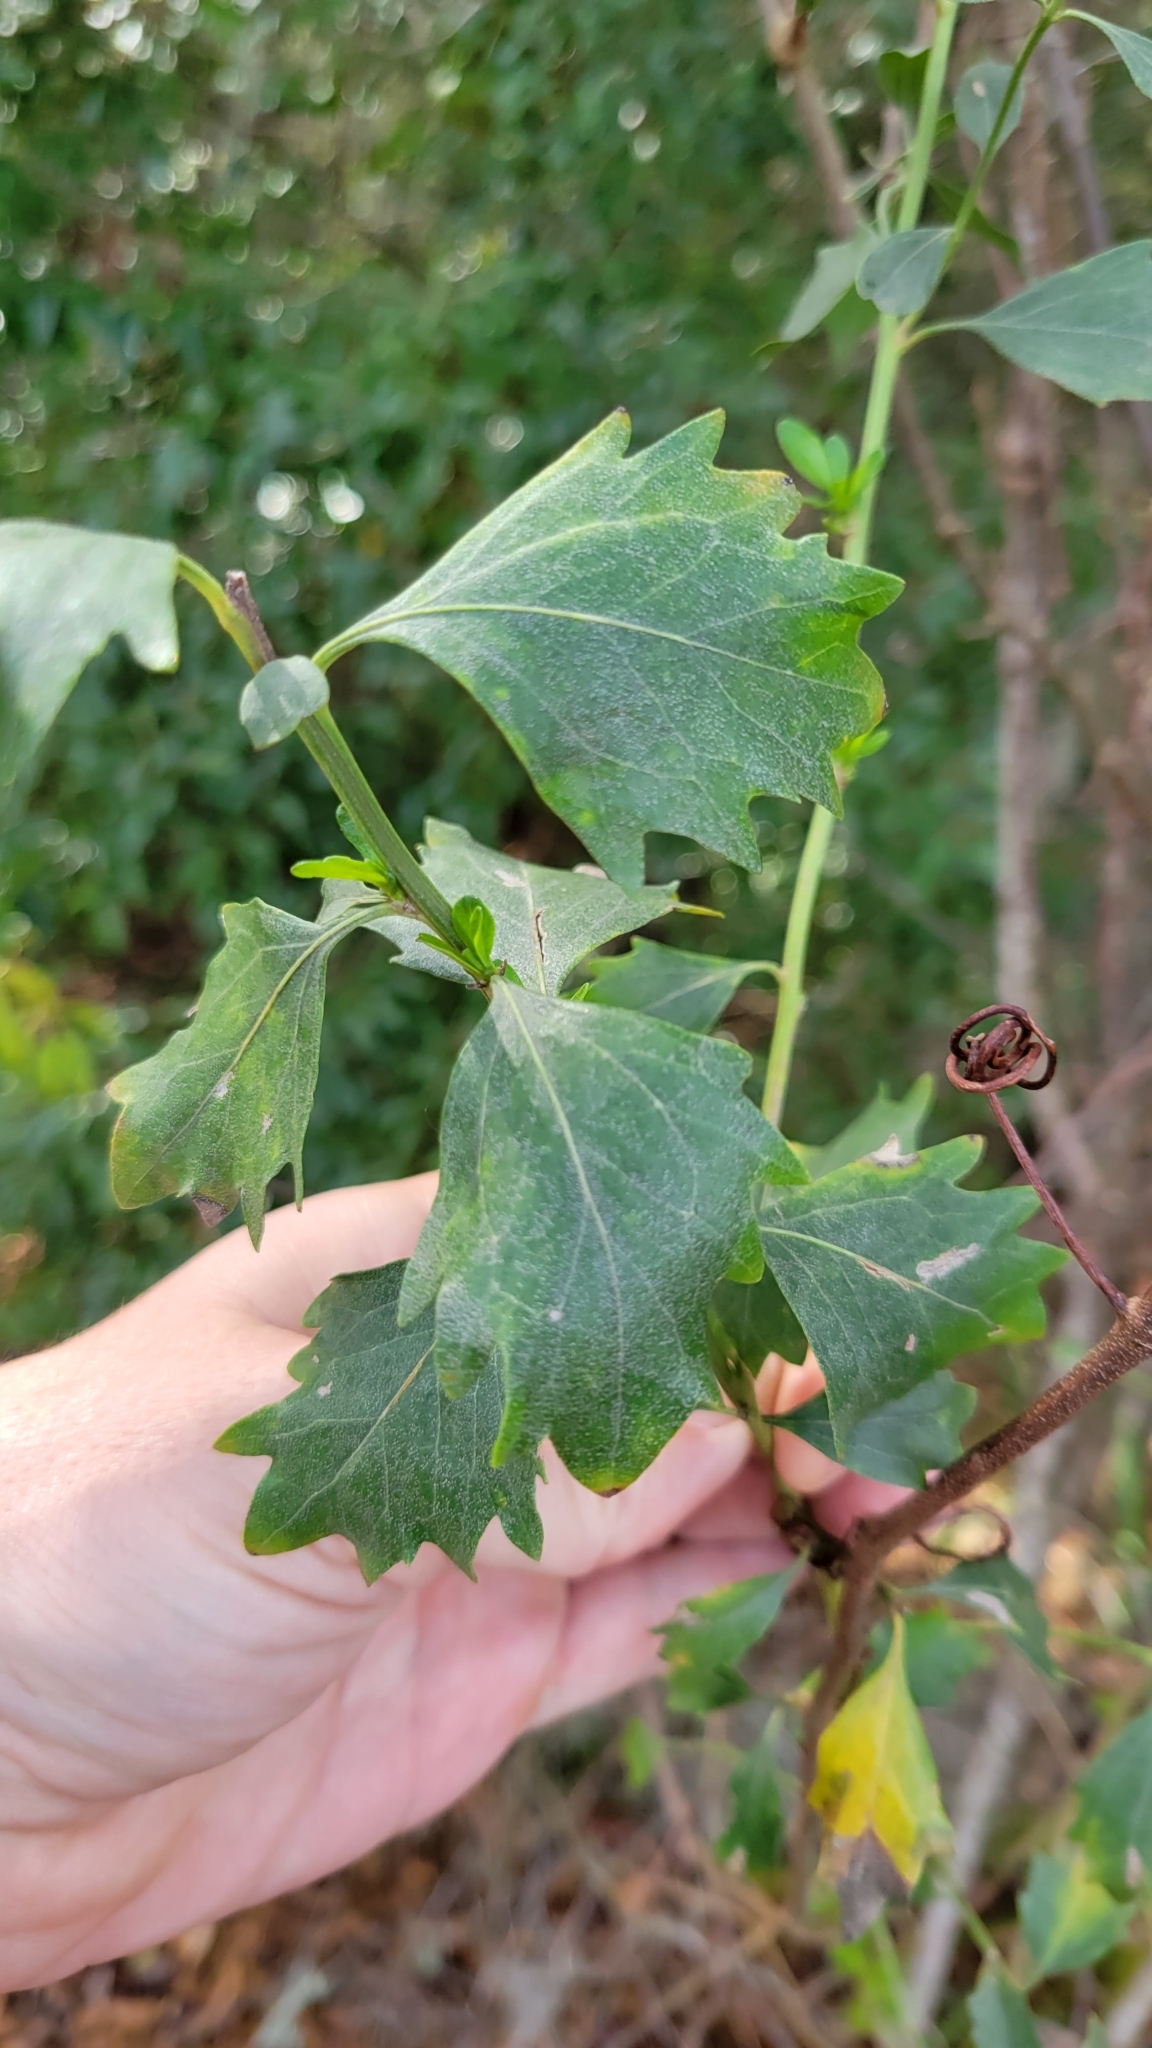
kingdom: Plantae
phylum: Tracheophyta
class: Magnoliopsida
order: Asterales
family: Asteraceae
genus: Baccharis
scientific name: Baccharis halimifolia
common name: Eastern baccharis
